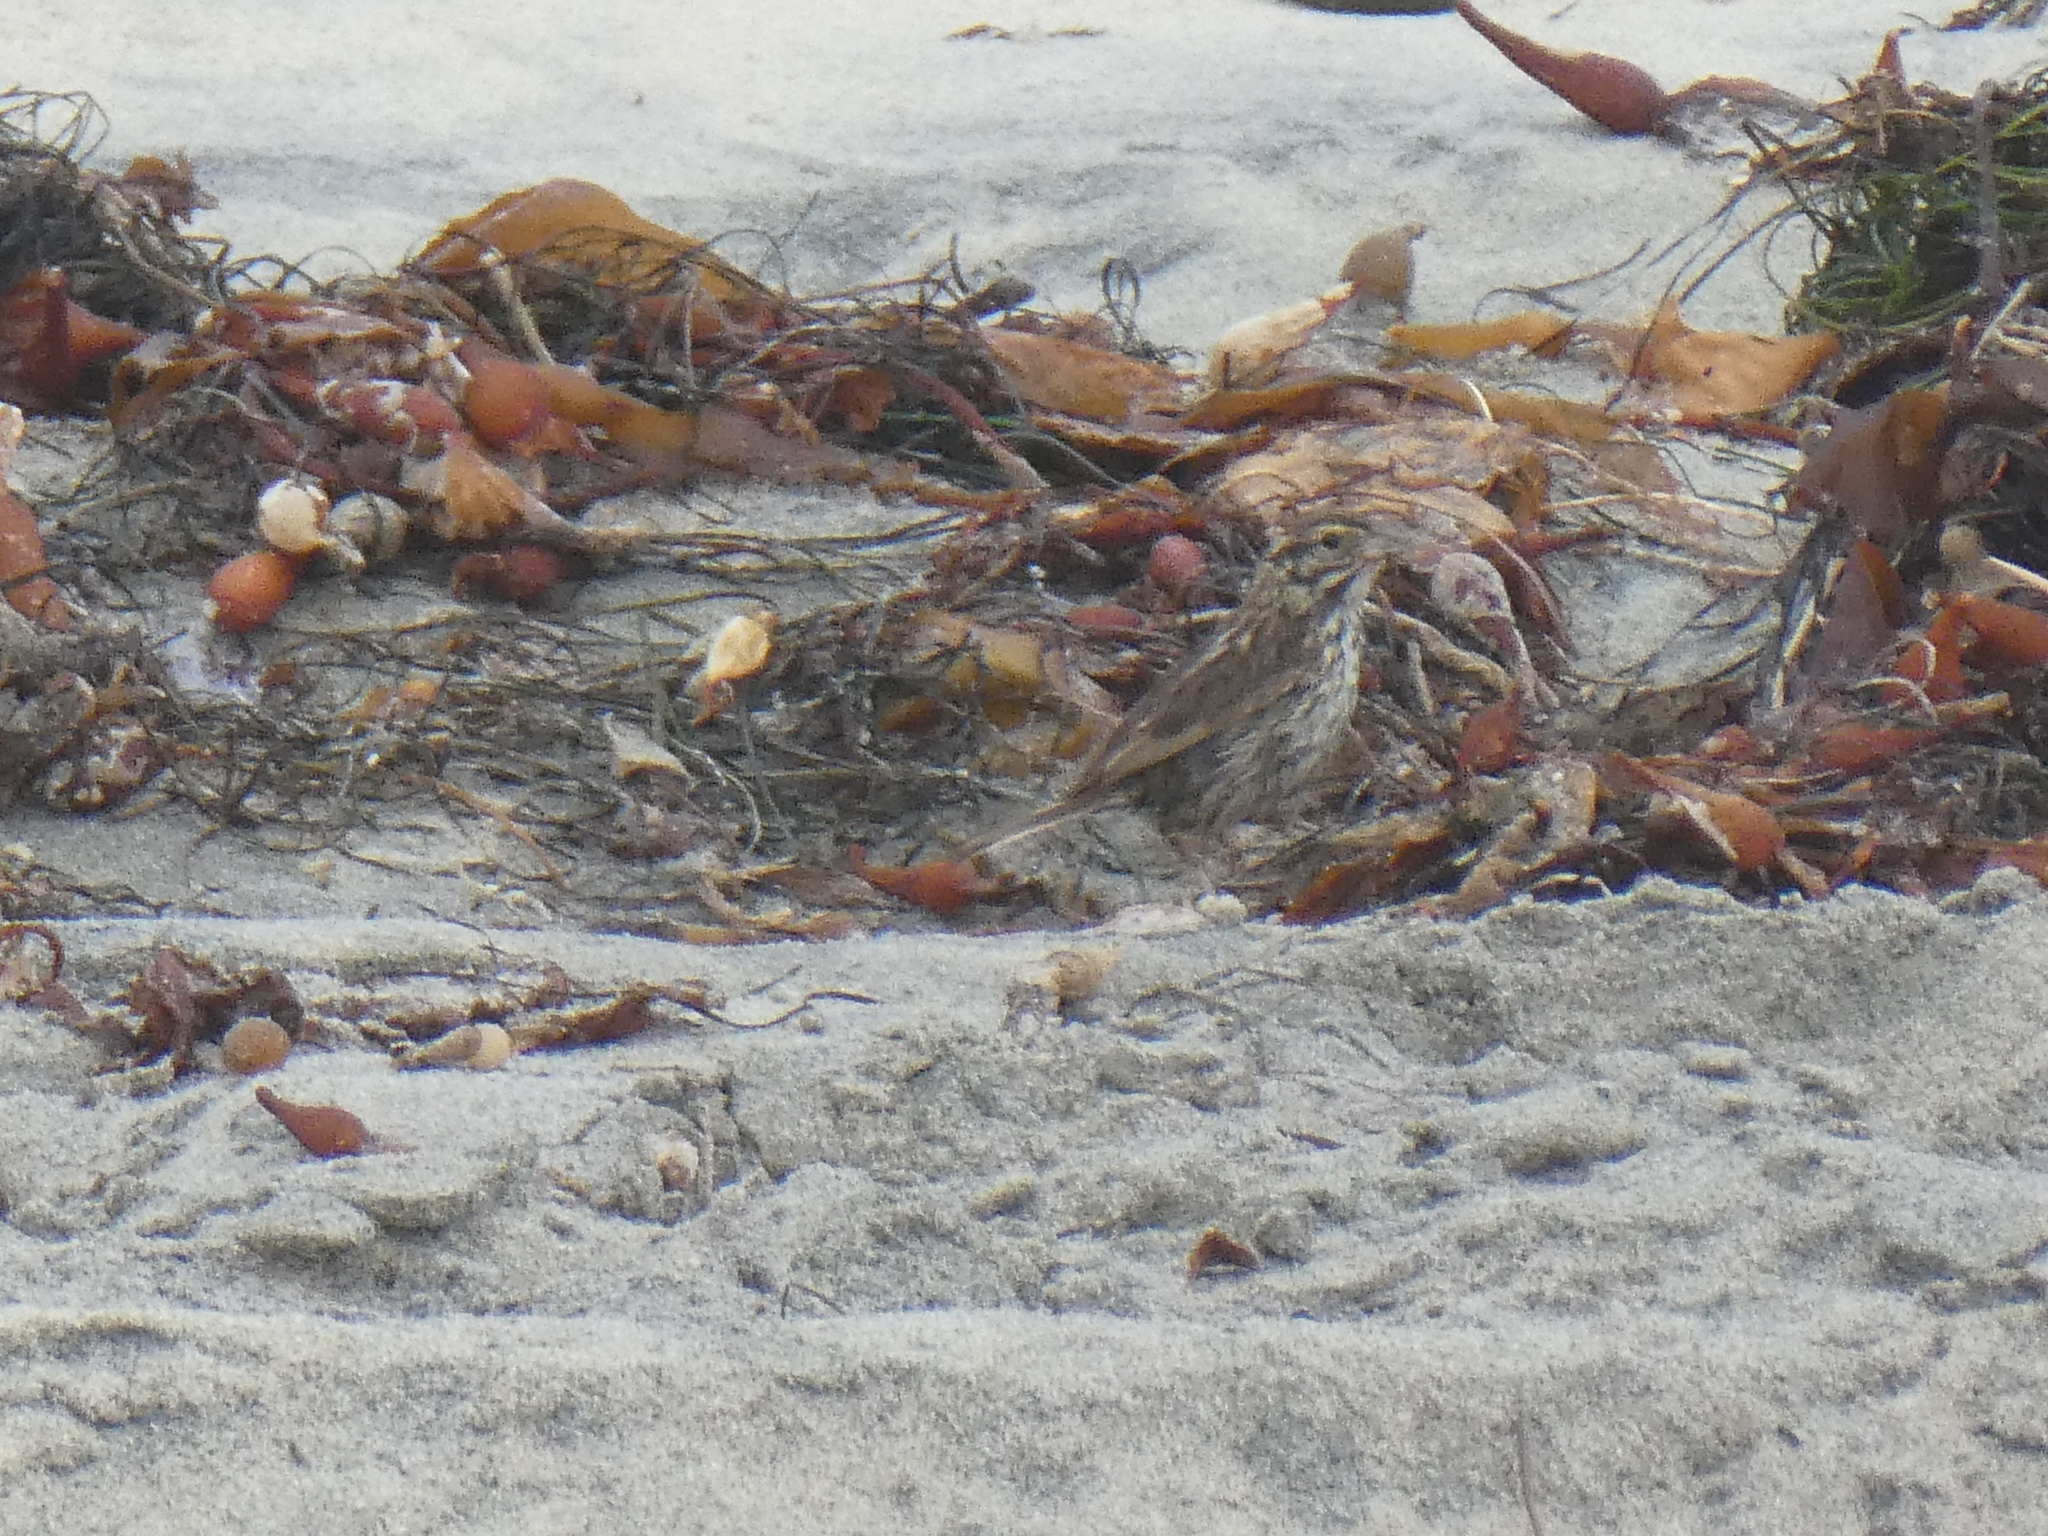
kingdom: Animalia
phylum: Chordata
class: Aves
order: Passeriformes
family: Passerellidae
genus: Passerculus
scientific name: Passerculus sandwichensis
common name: Savannah sparrow
